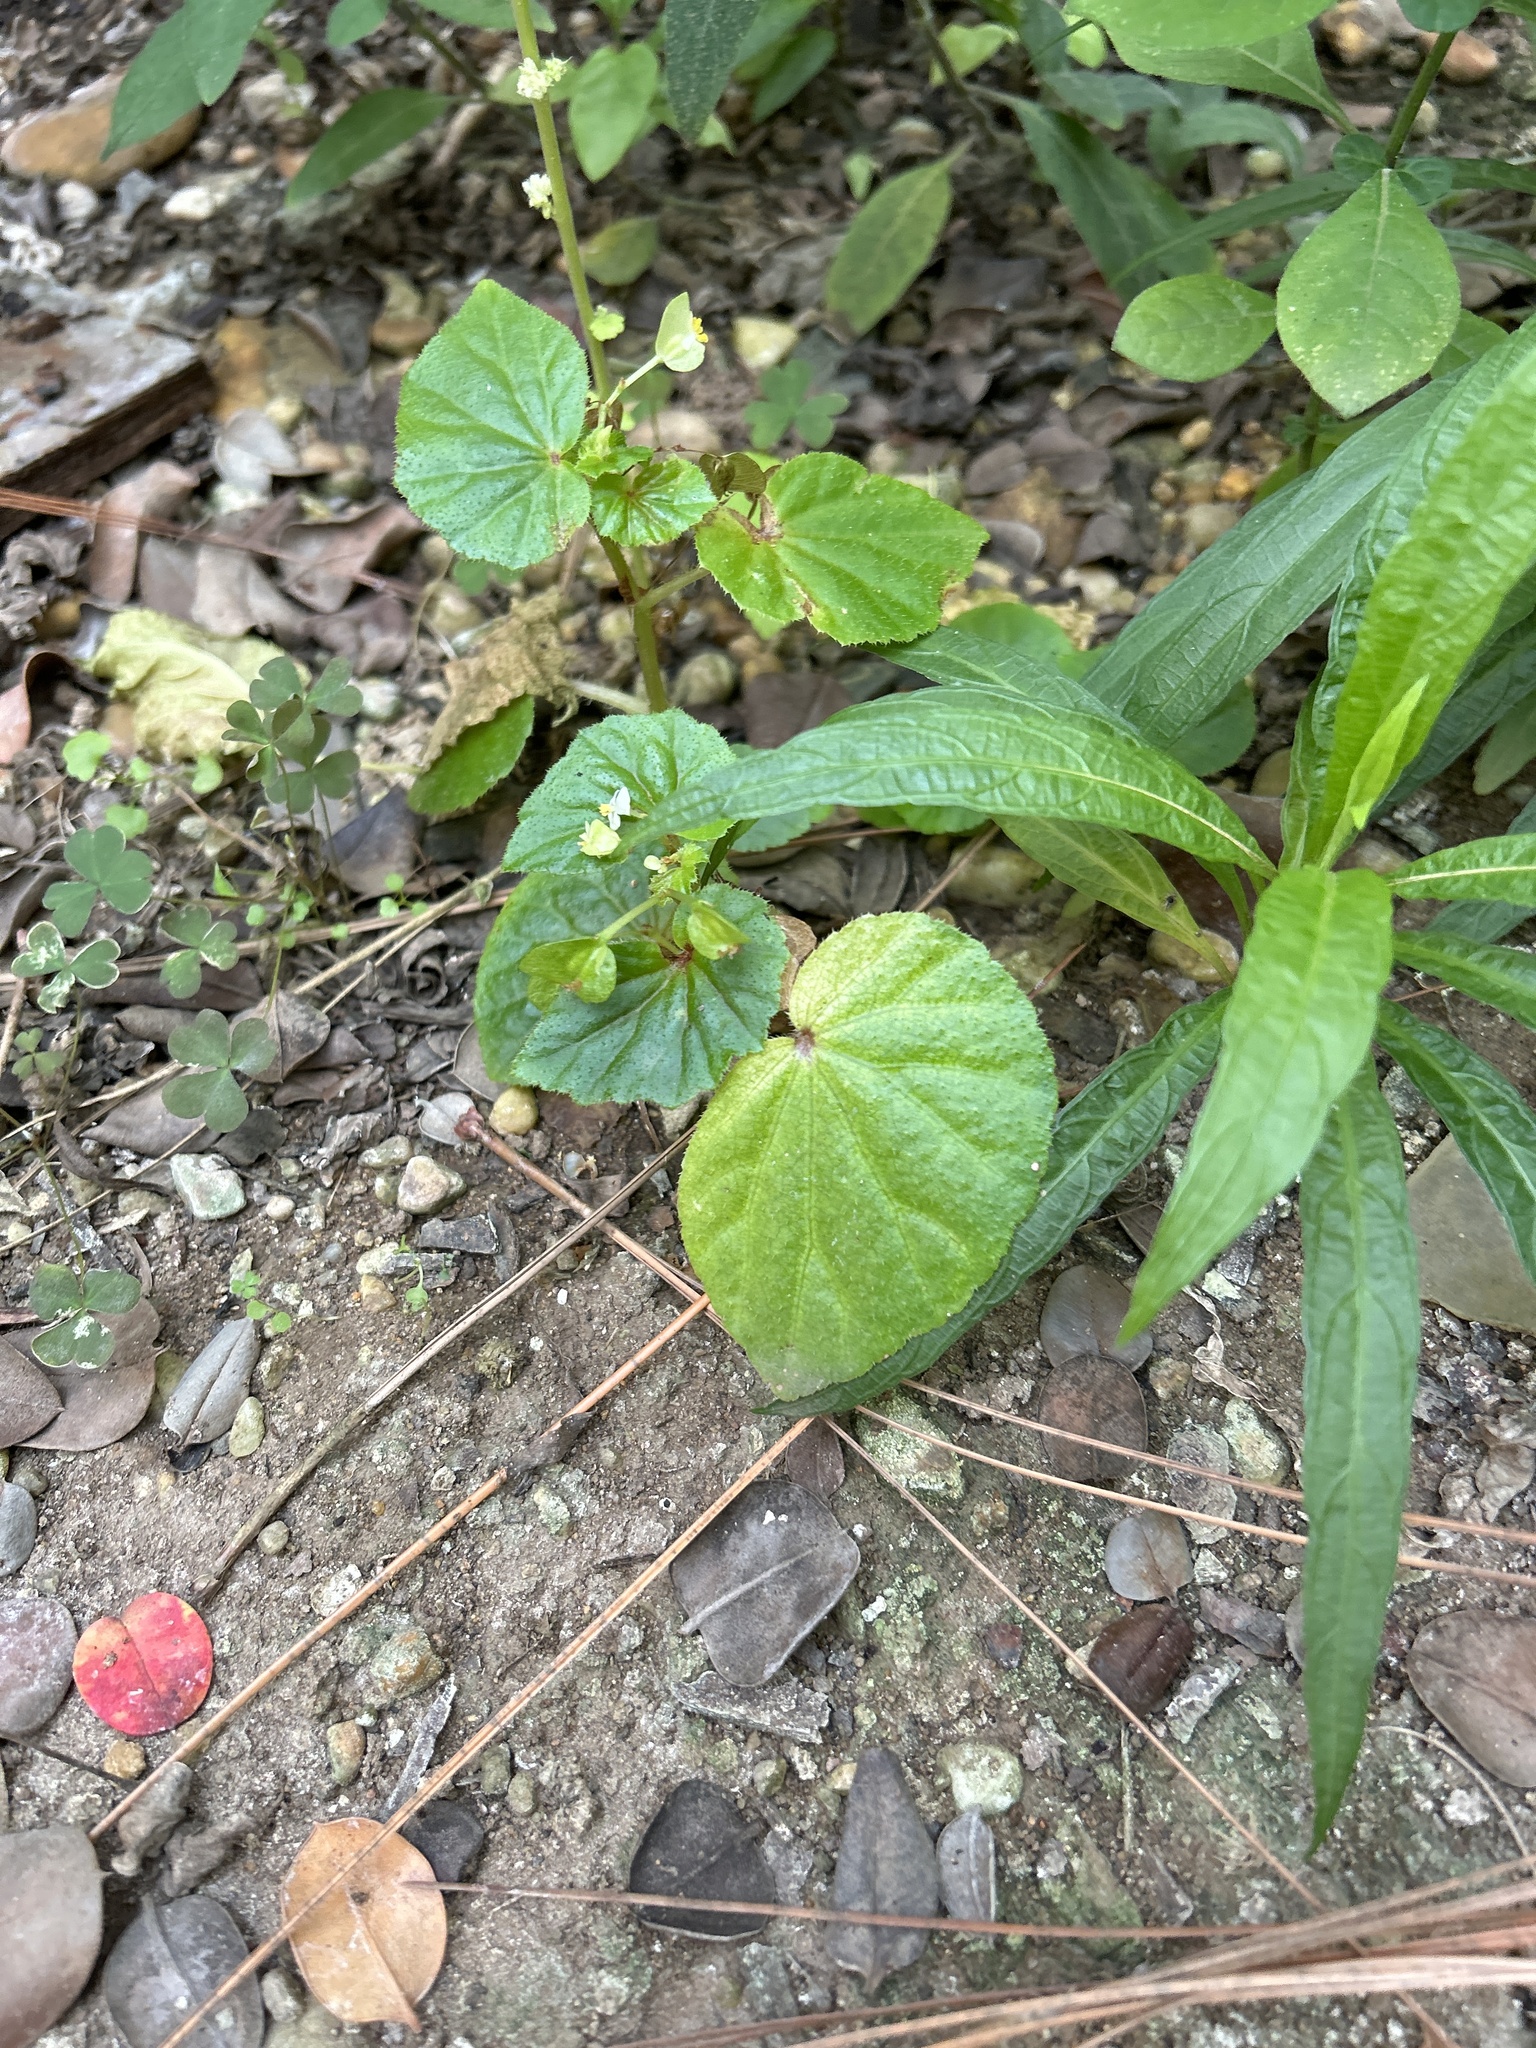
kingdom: Plantae
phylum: Tracheophyta
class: Magnoliopsida
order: Cucurbitales
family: Begoniaceae
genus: Begonia
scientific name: Begonia hirtella
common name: Brazilian begonia
